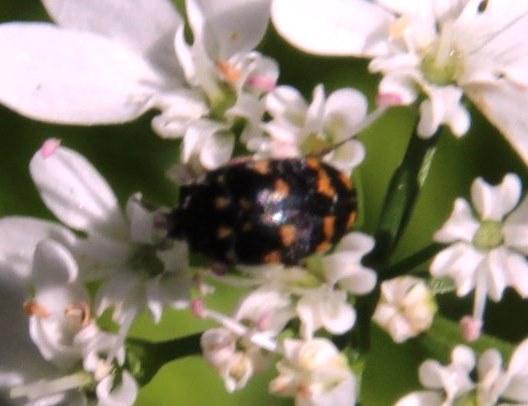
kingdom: Animalia
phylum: Arthropoda
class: Insecta
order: Coleoptera
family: Dermestidae
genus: Attagenus
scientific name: Attagenus
